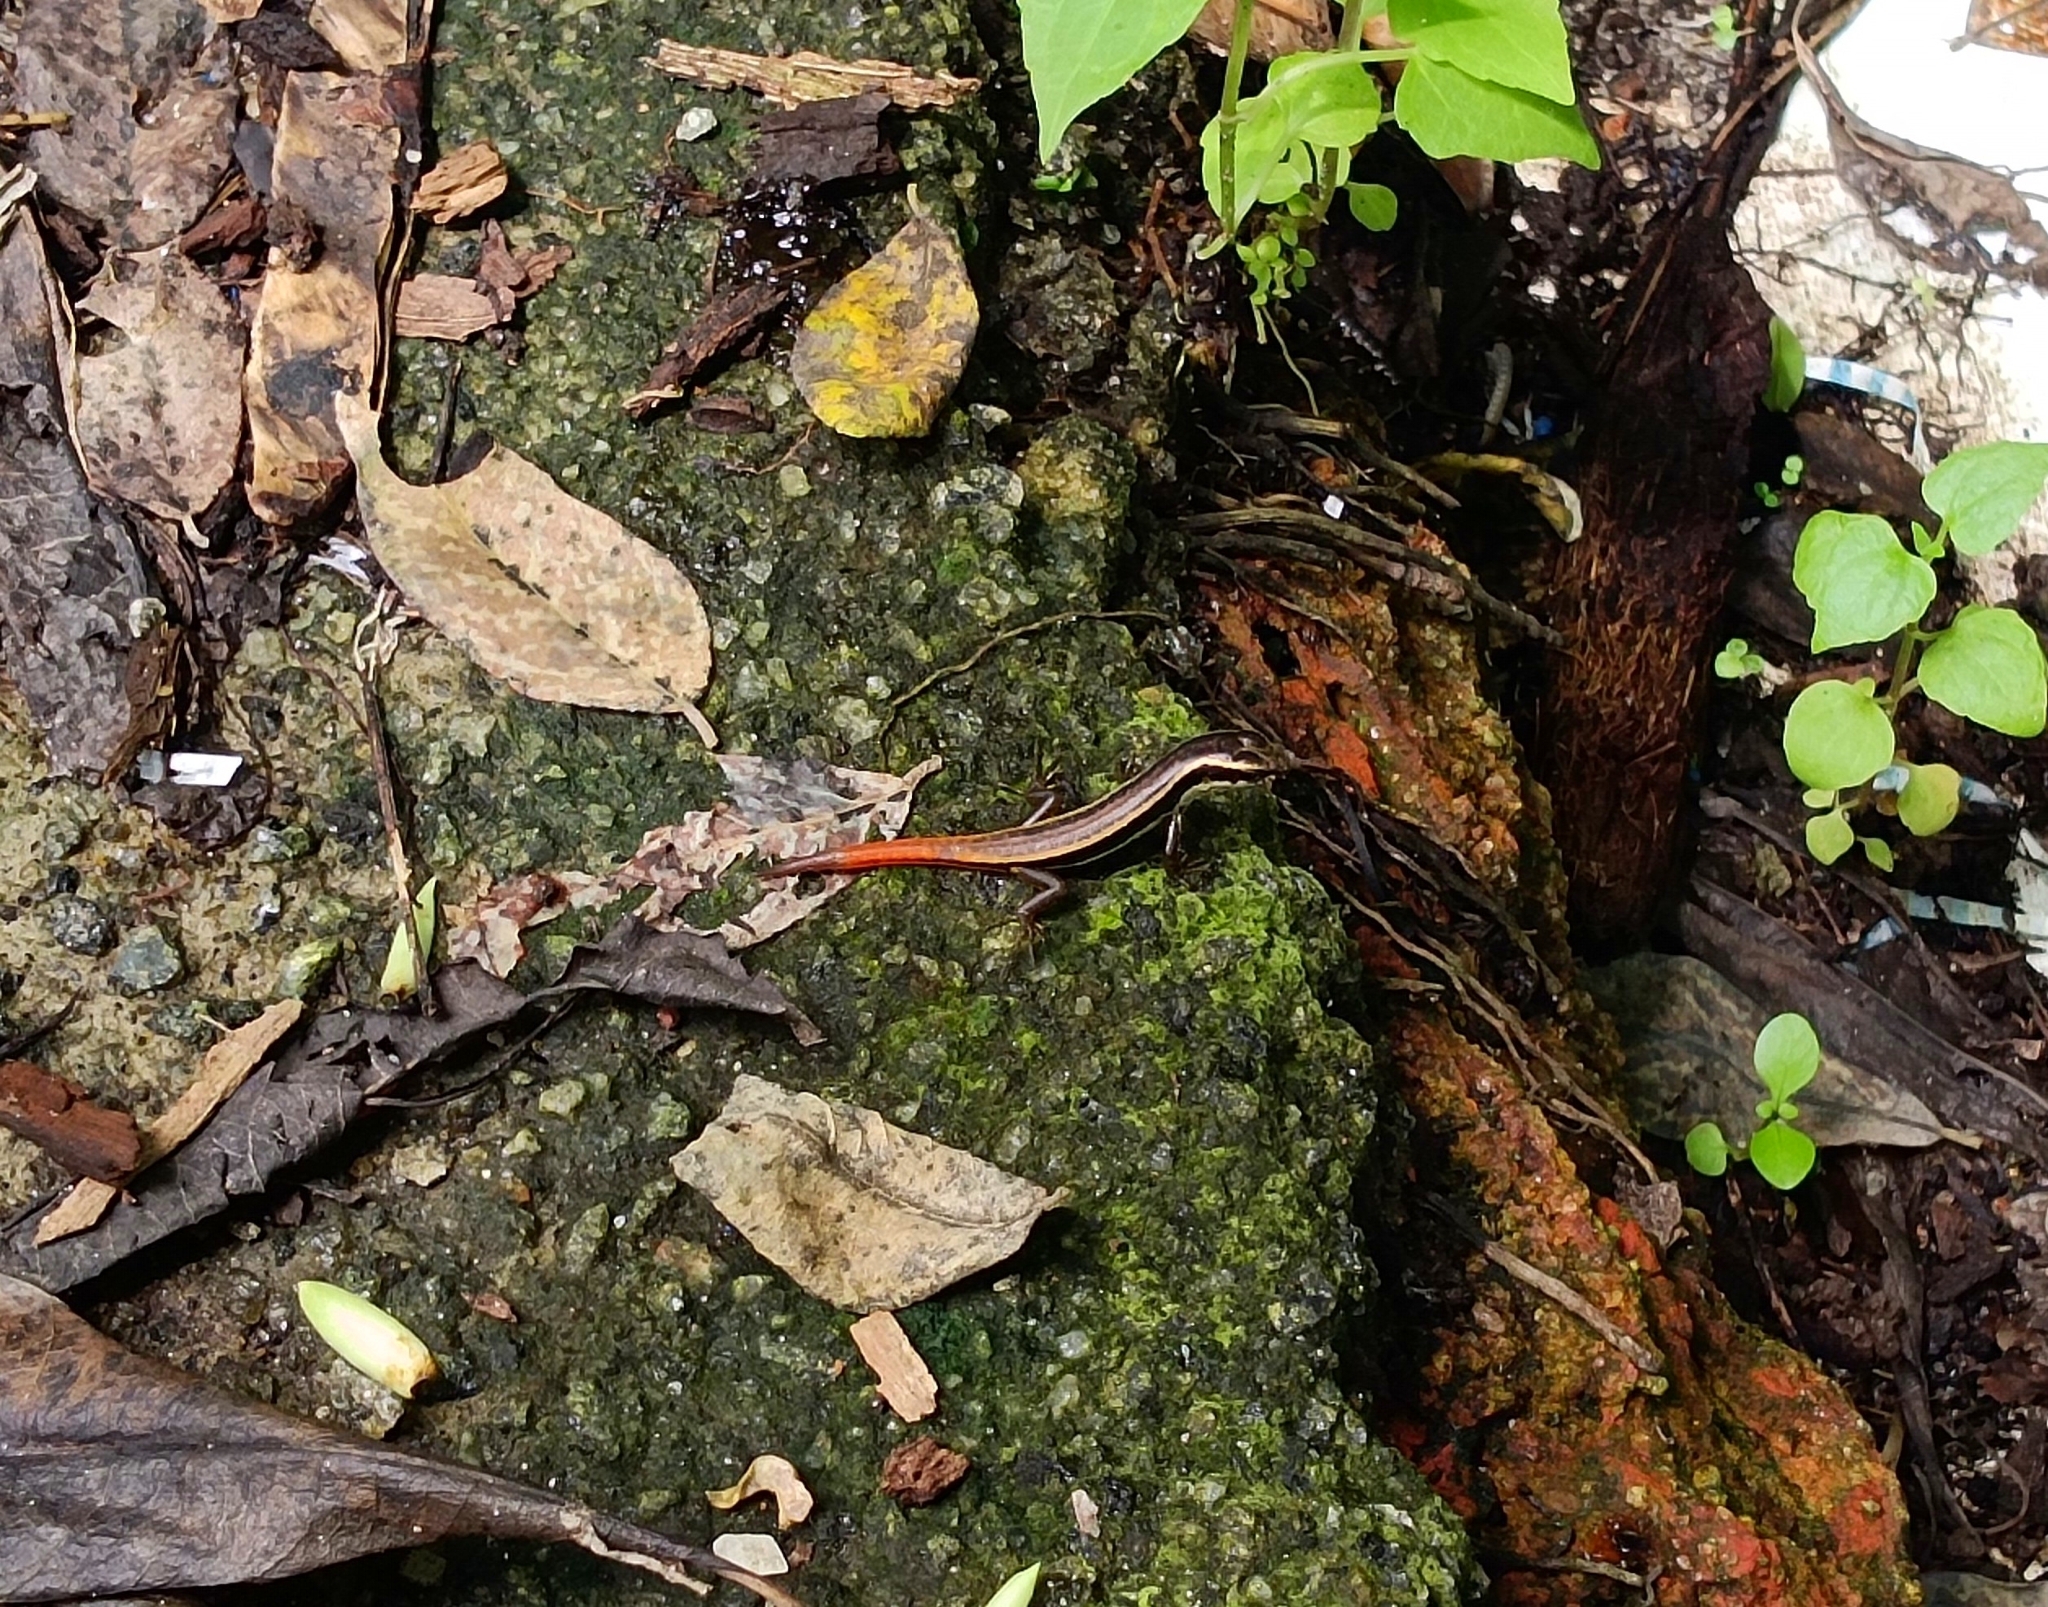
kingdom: Animalia
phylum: Chordata
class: Squamata
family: Scincidae
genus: Sphenomorphus
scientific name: Sphenomorphus dussumieri
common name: Dussumier's forest skink
